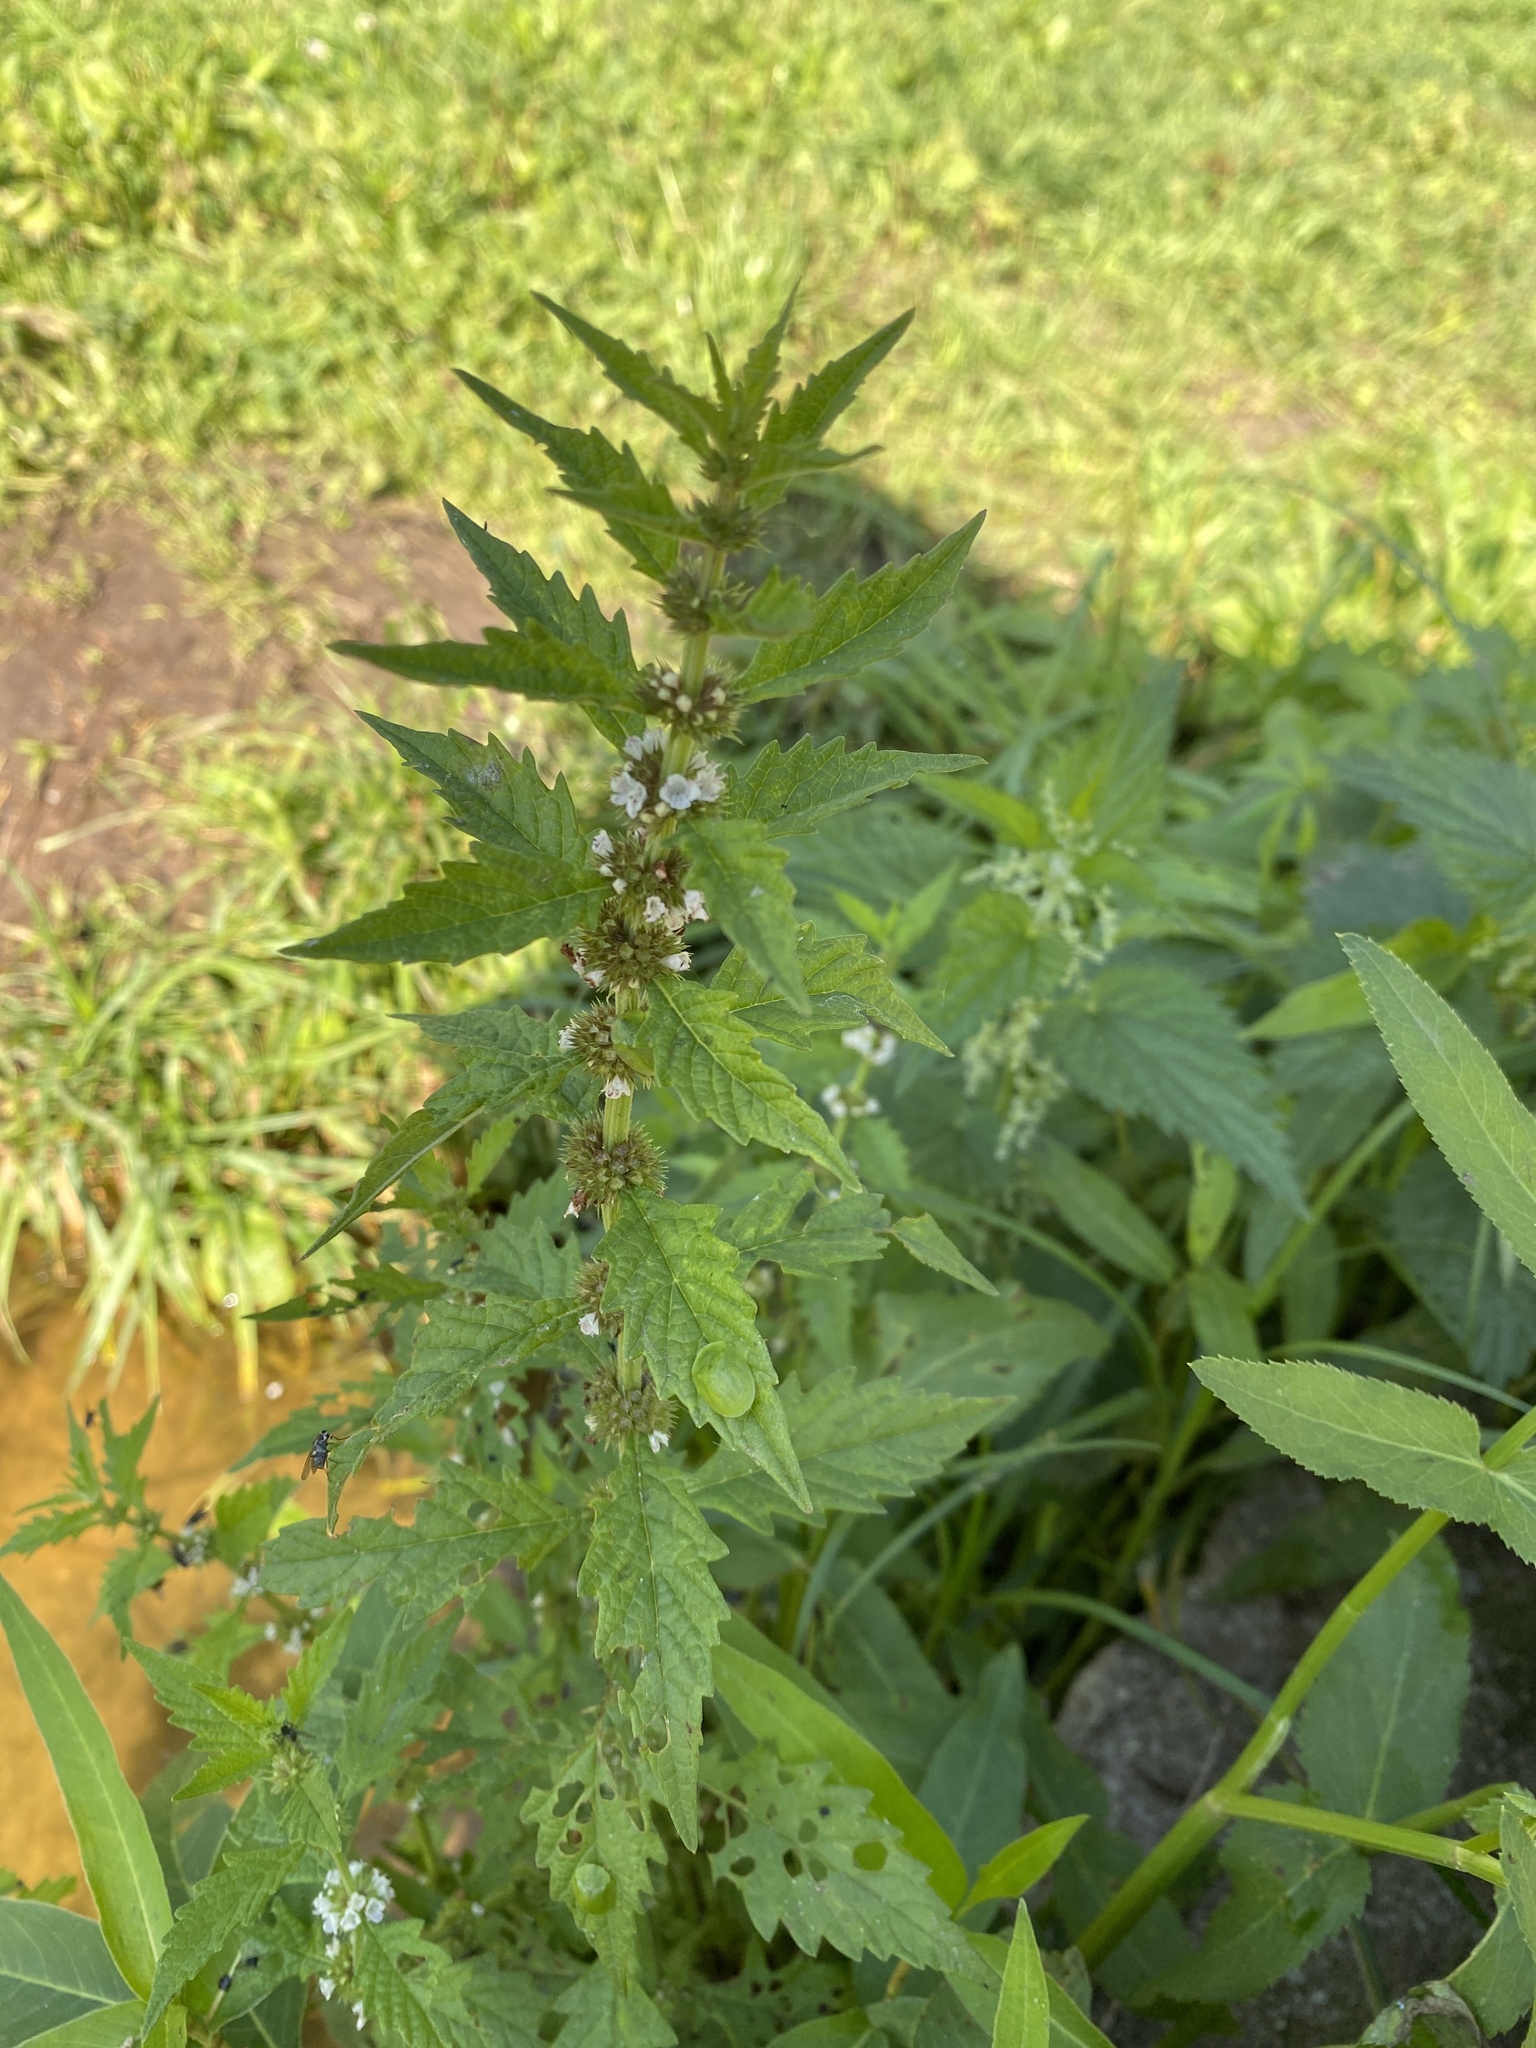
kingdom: Plantae
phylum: Tracheophyta
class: Magnoliopsida
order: Lamiales
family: Lamiaceae
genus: Lycopus
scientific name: Lycopus europaeus
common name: European bugleweed
